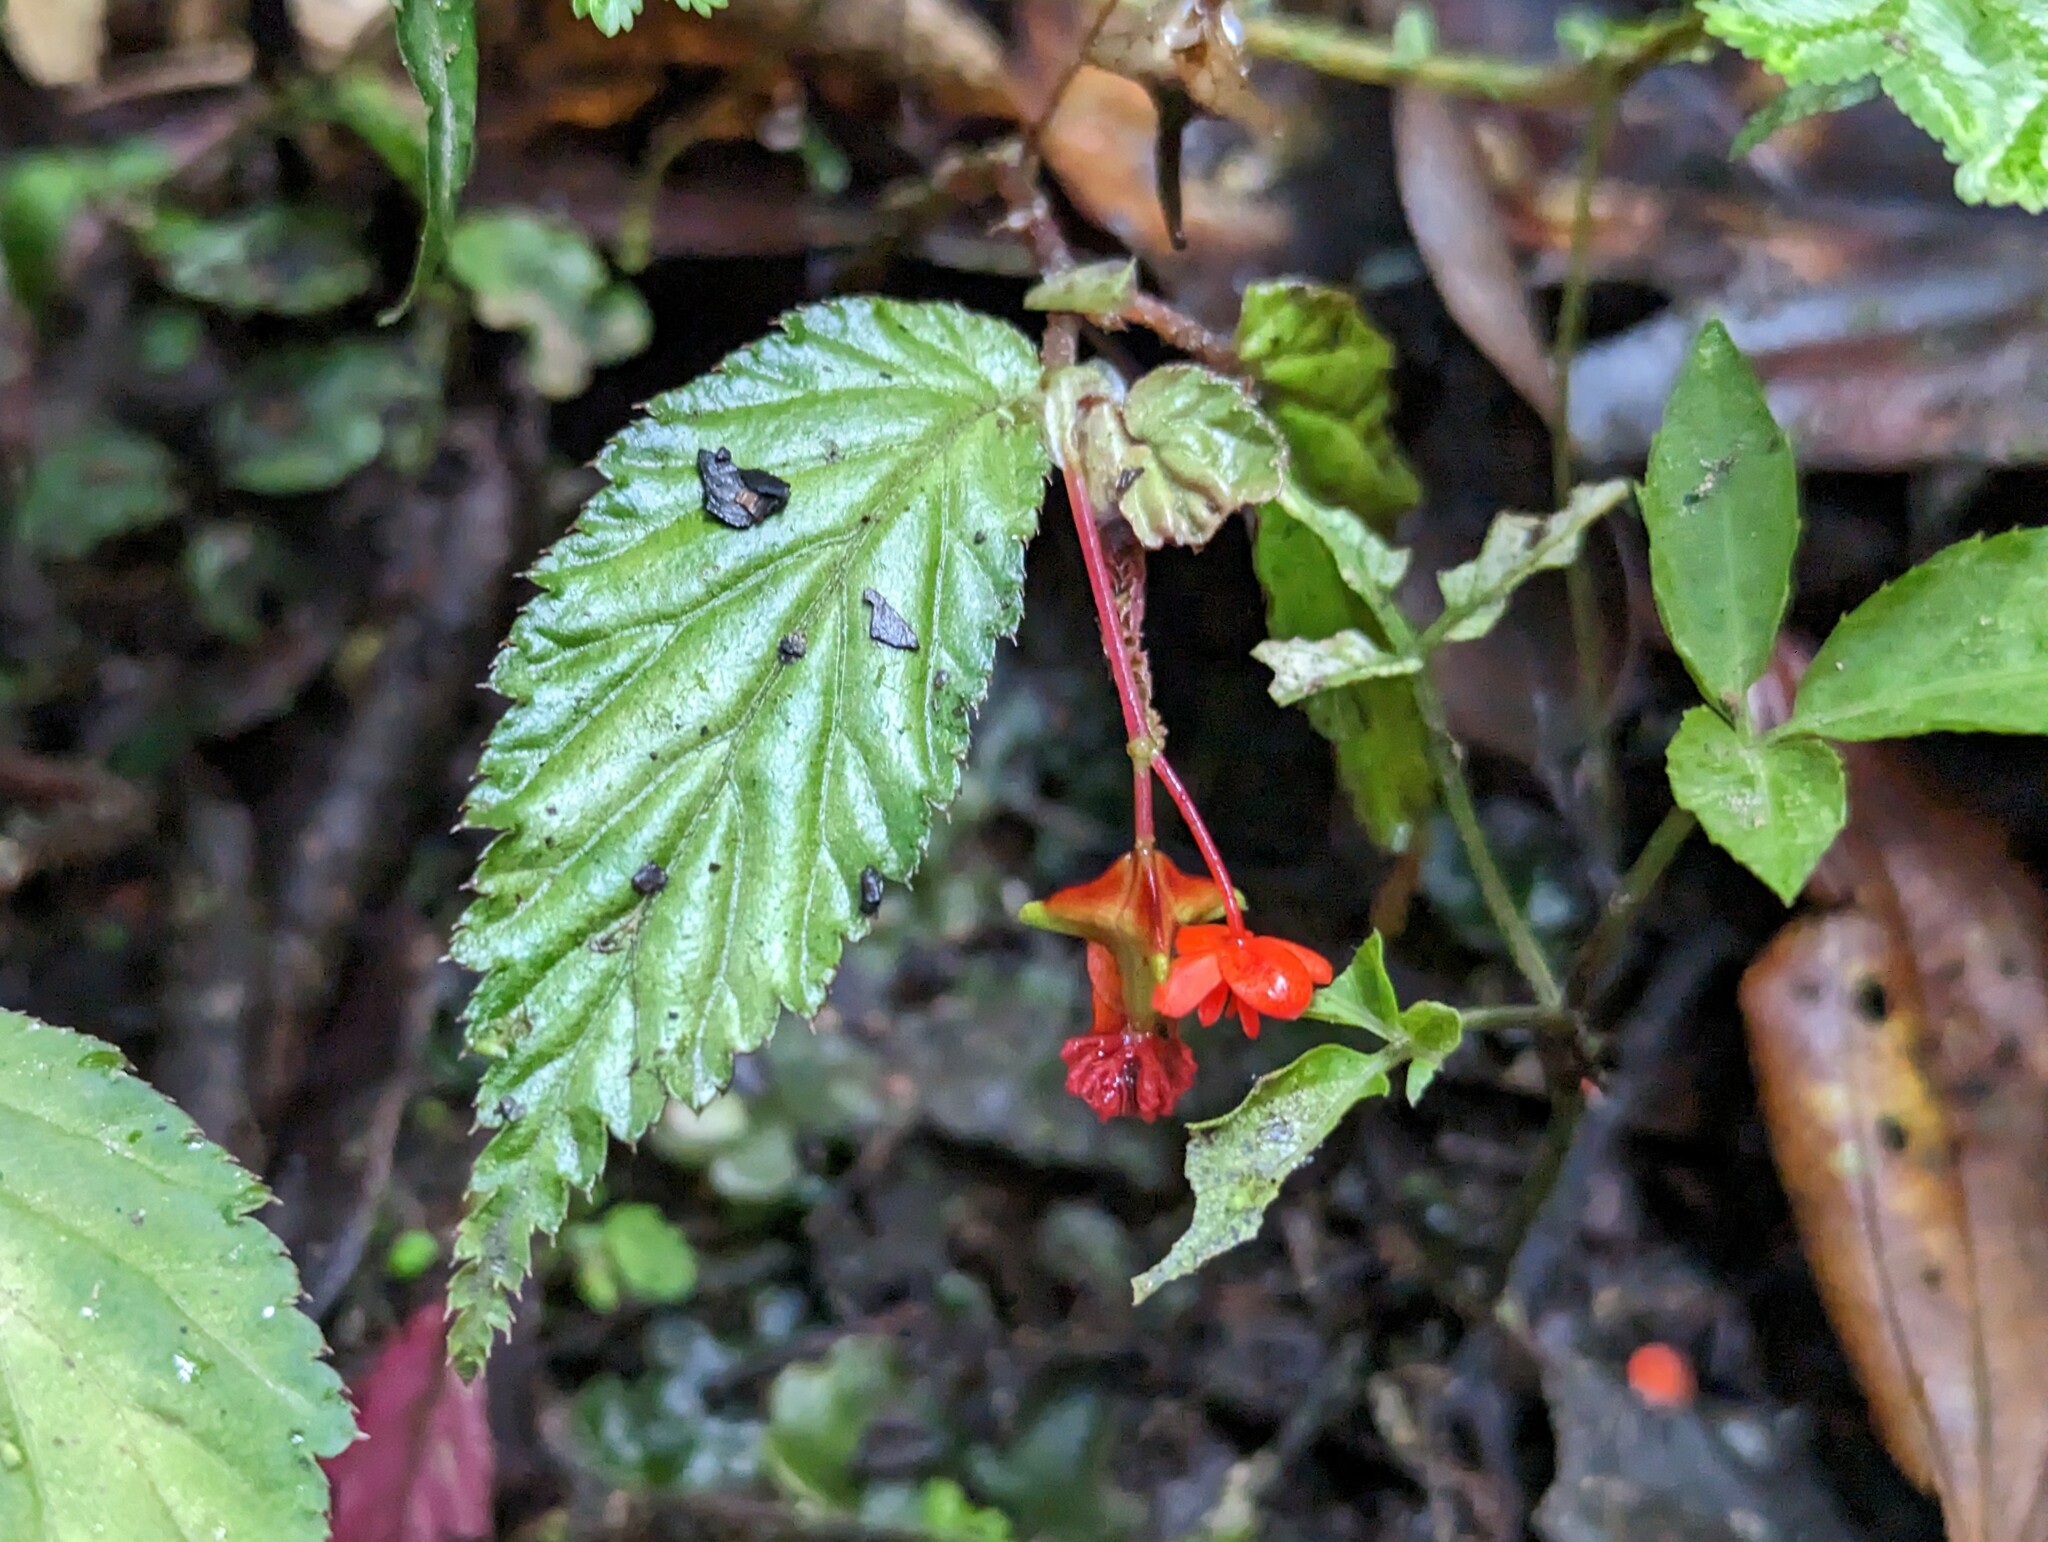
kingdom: Plantae
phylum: Tracheophyta
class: Magnoliopsida
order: Cucurbitales
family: Begoniaceae
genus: Begonia
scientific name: Begonia urticae
